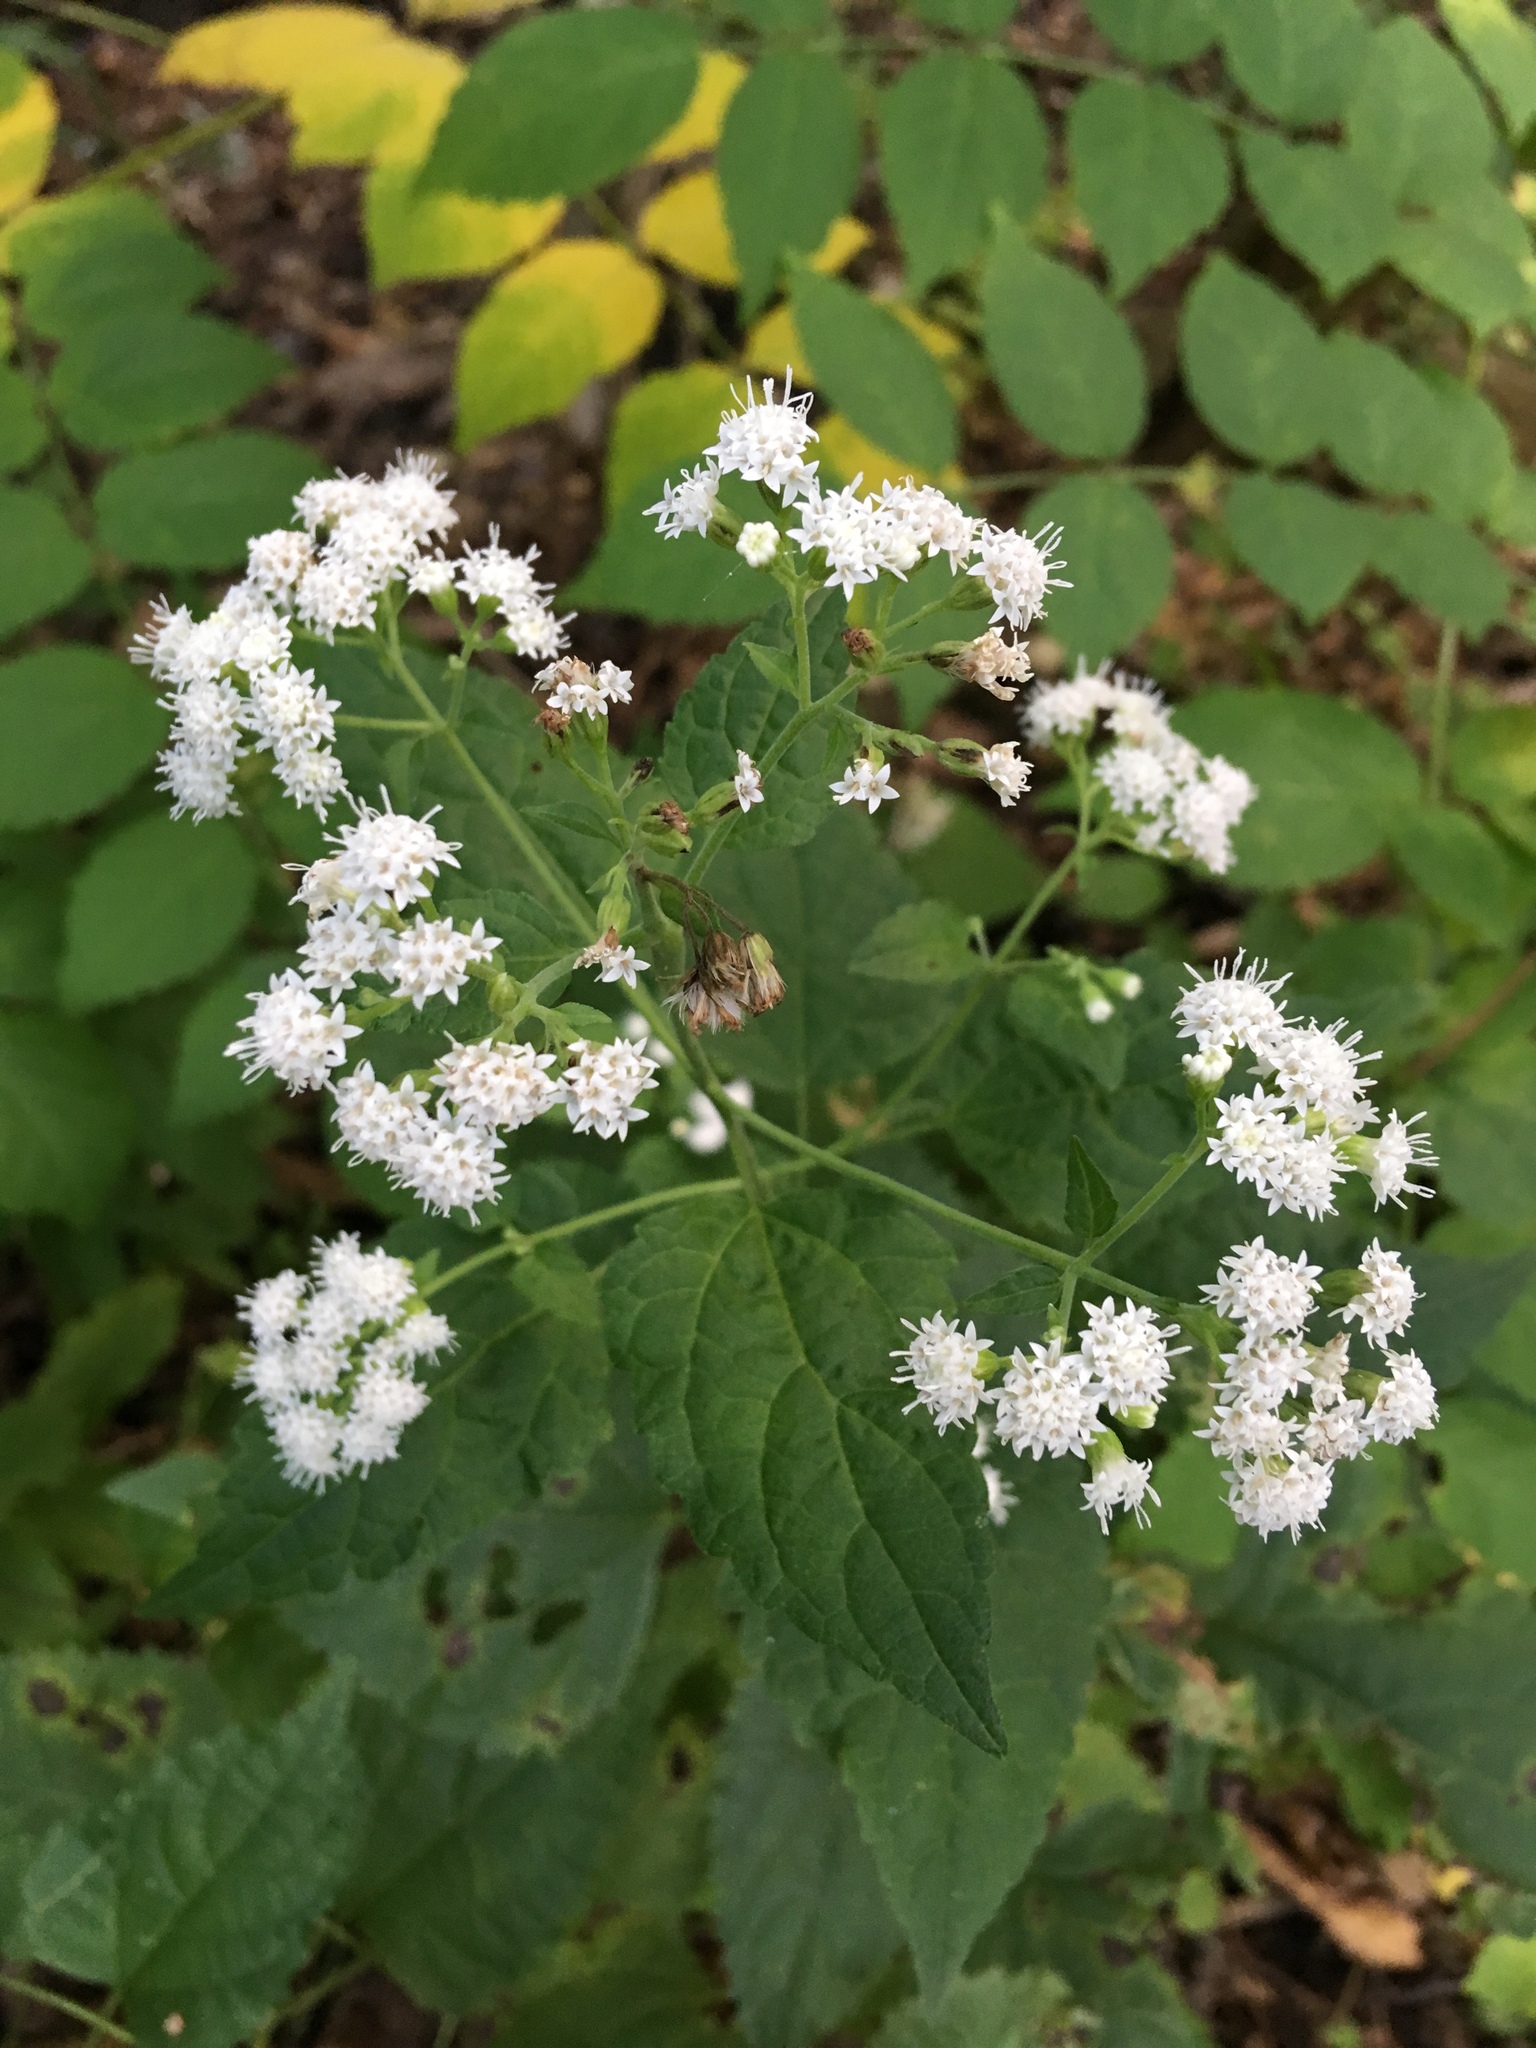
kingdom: Plantae
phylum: Tracheophyta
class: Magnoliopsida
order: Asterales
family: Asteraceae
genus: Ageratina
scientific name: Ageratina altissima
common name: White snakeroot
